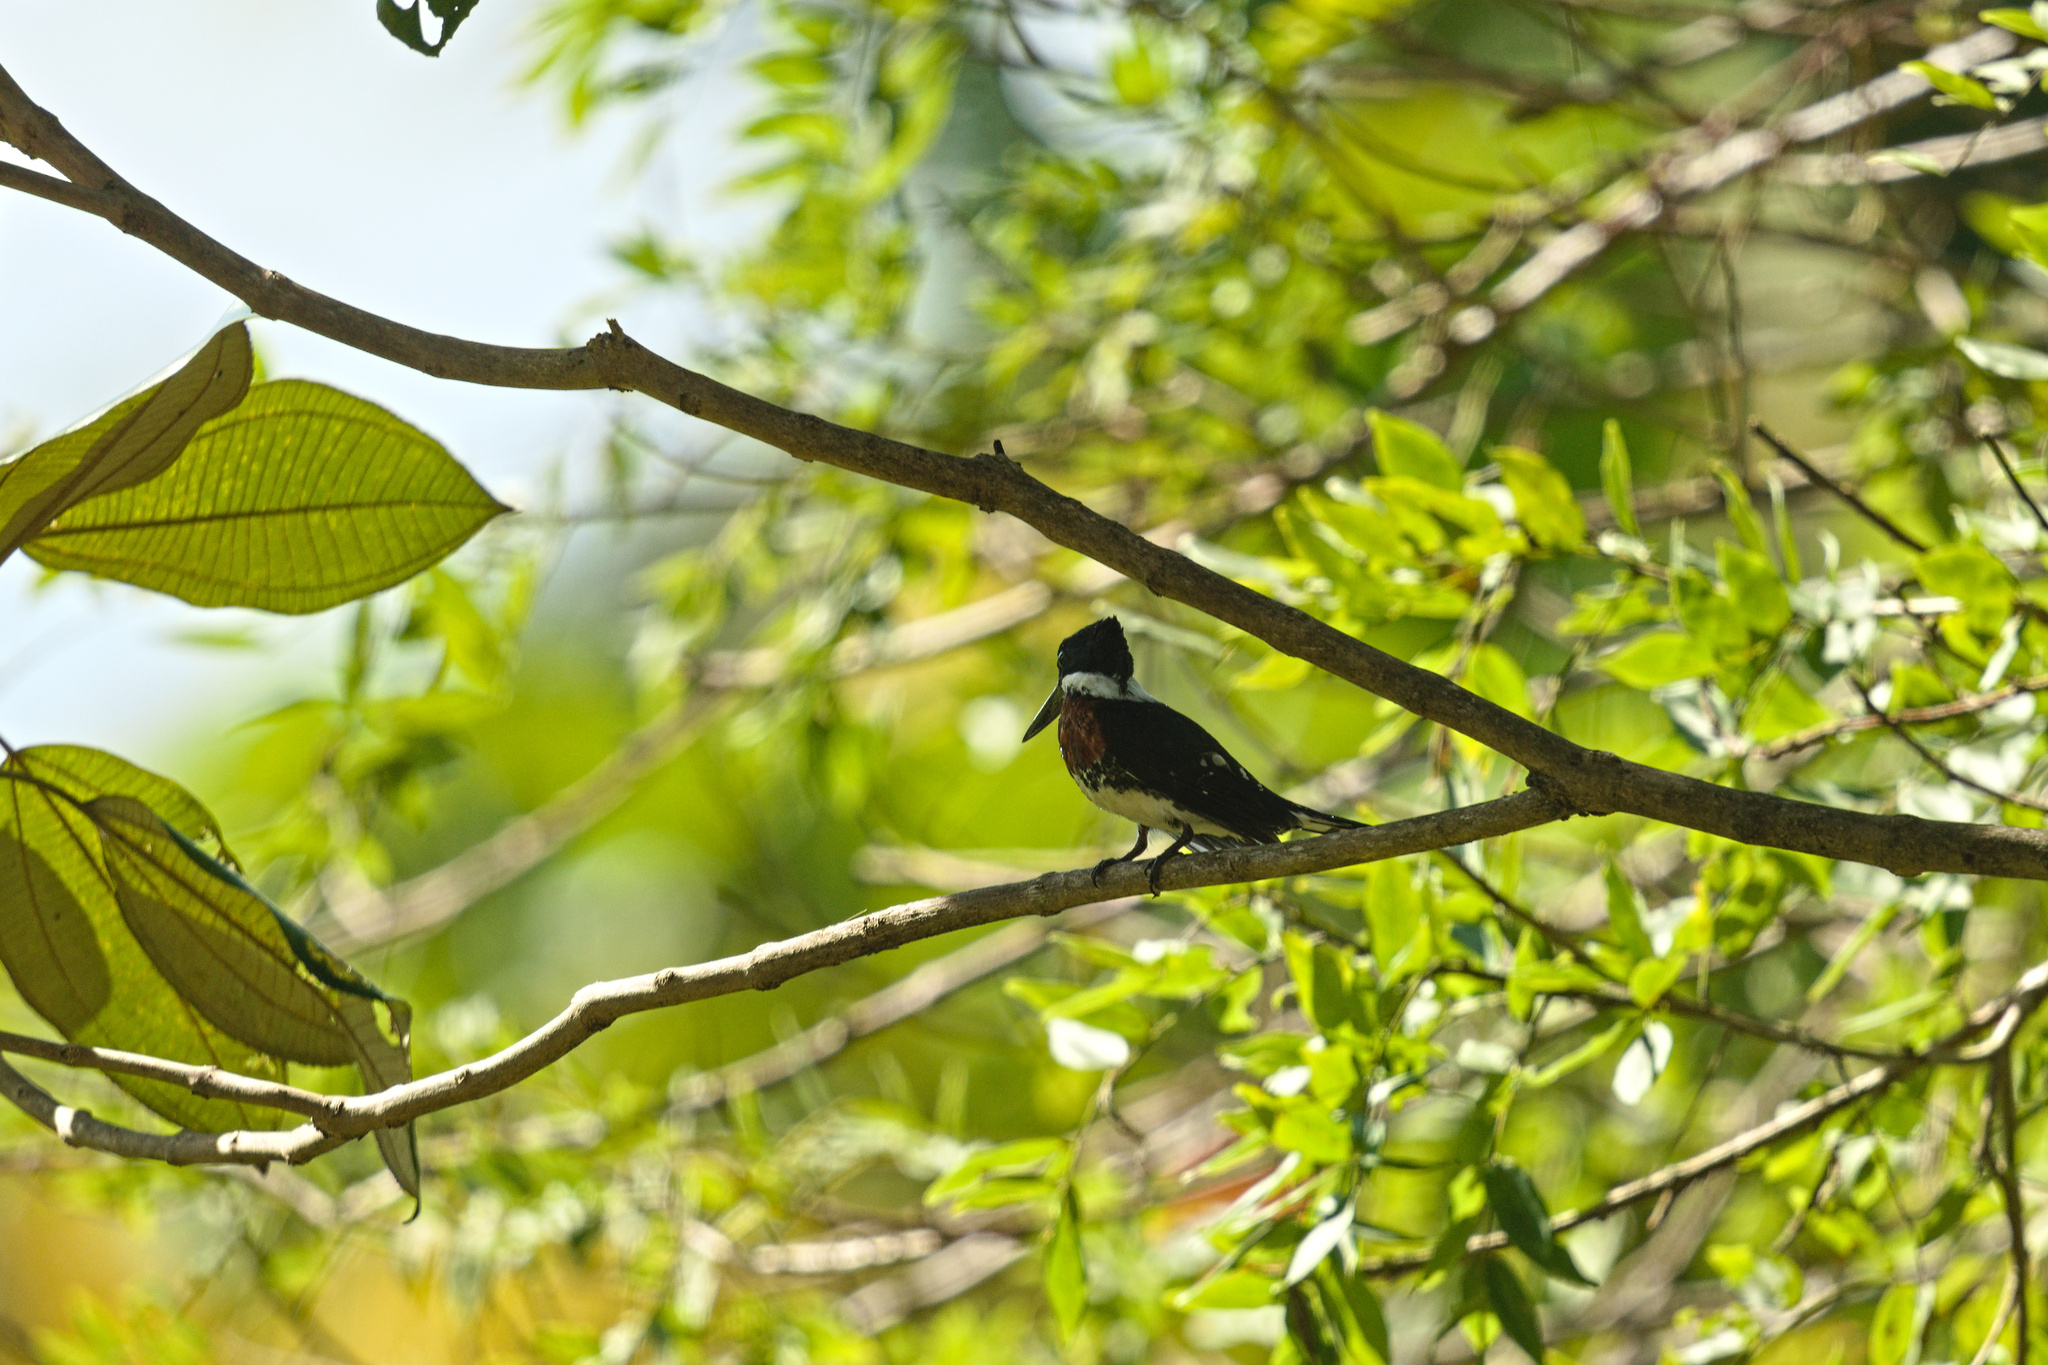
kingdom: Animalia
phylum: Chordata
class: Aves
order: Coraciiformes
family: Alcedinidae
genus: Chloroceryle
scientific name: Chloroceryle americana
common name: Green kingfisher
